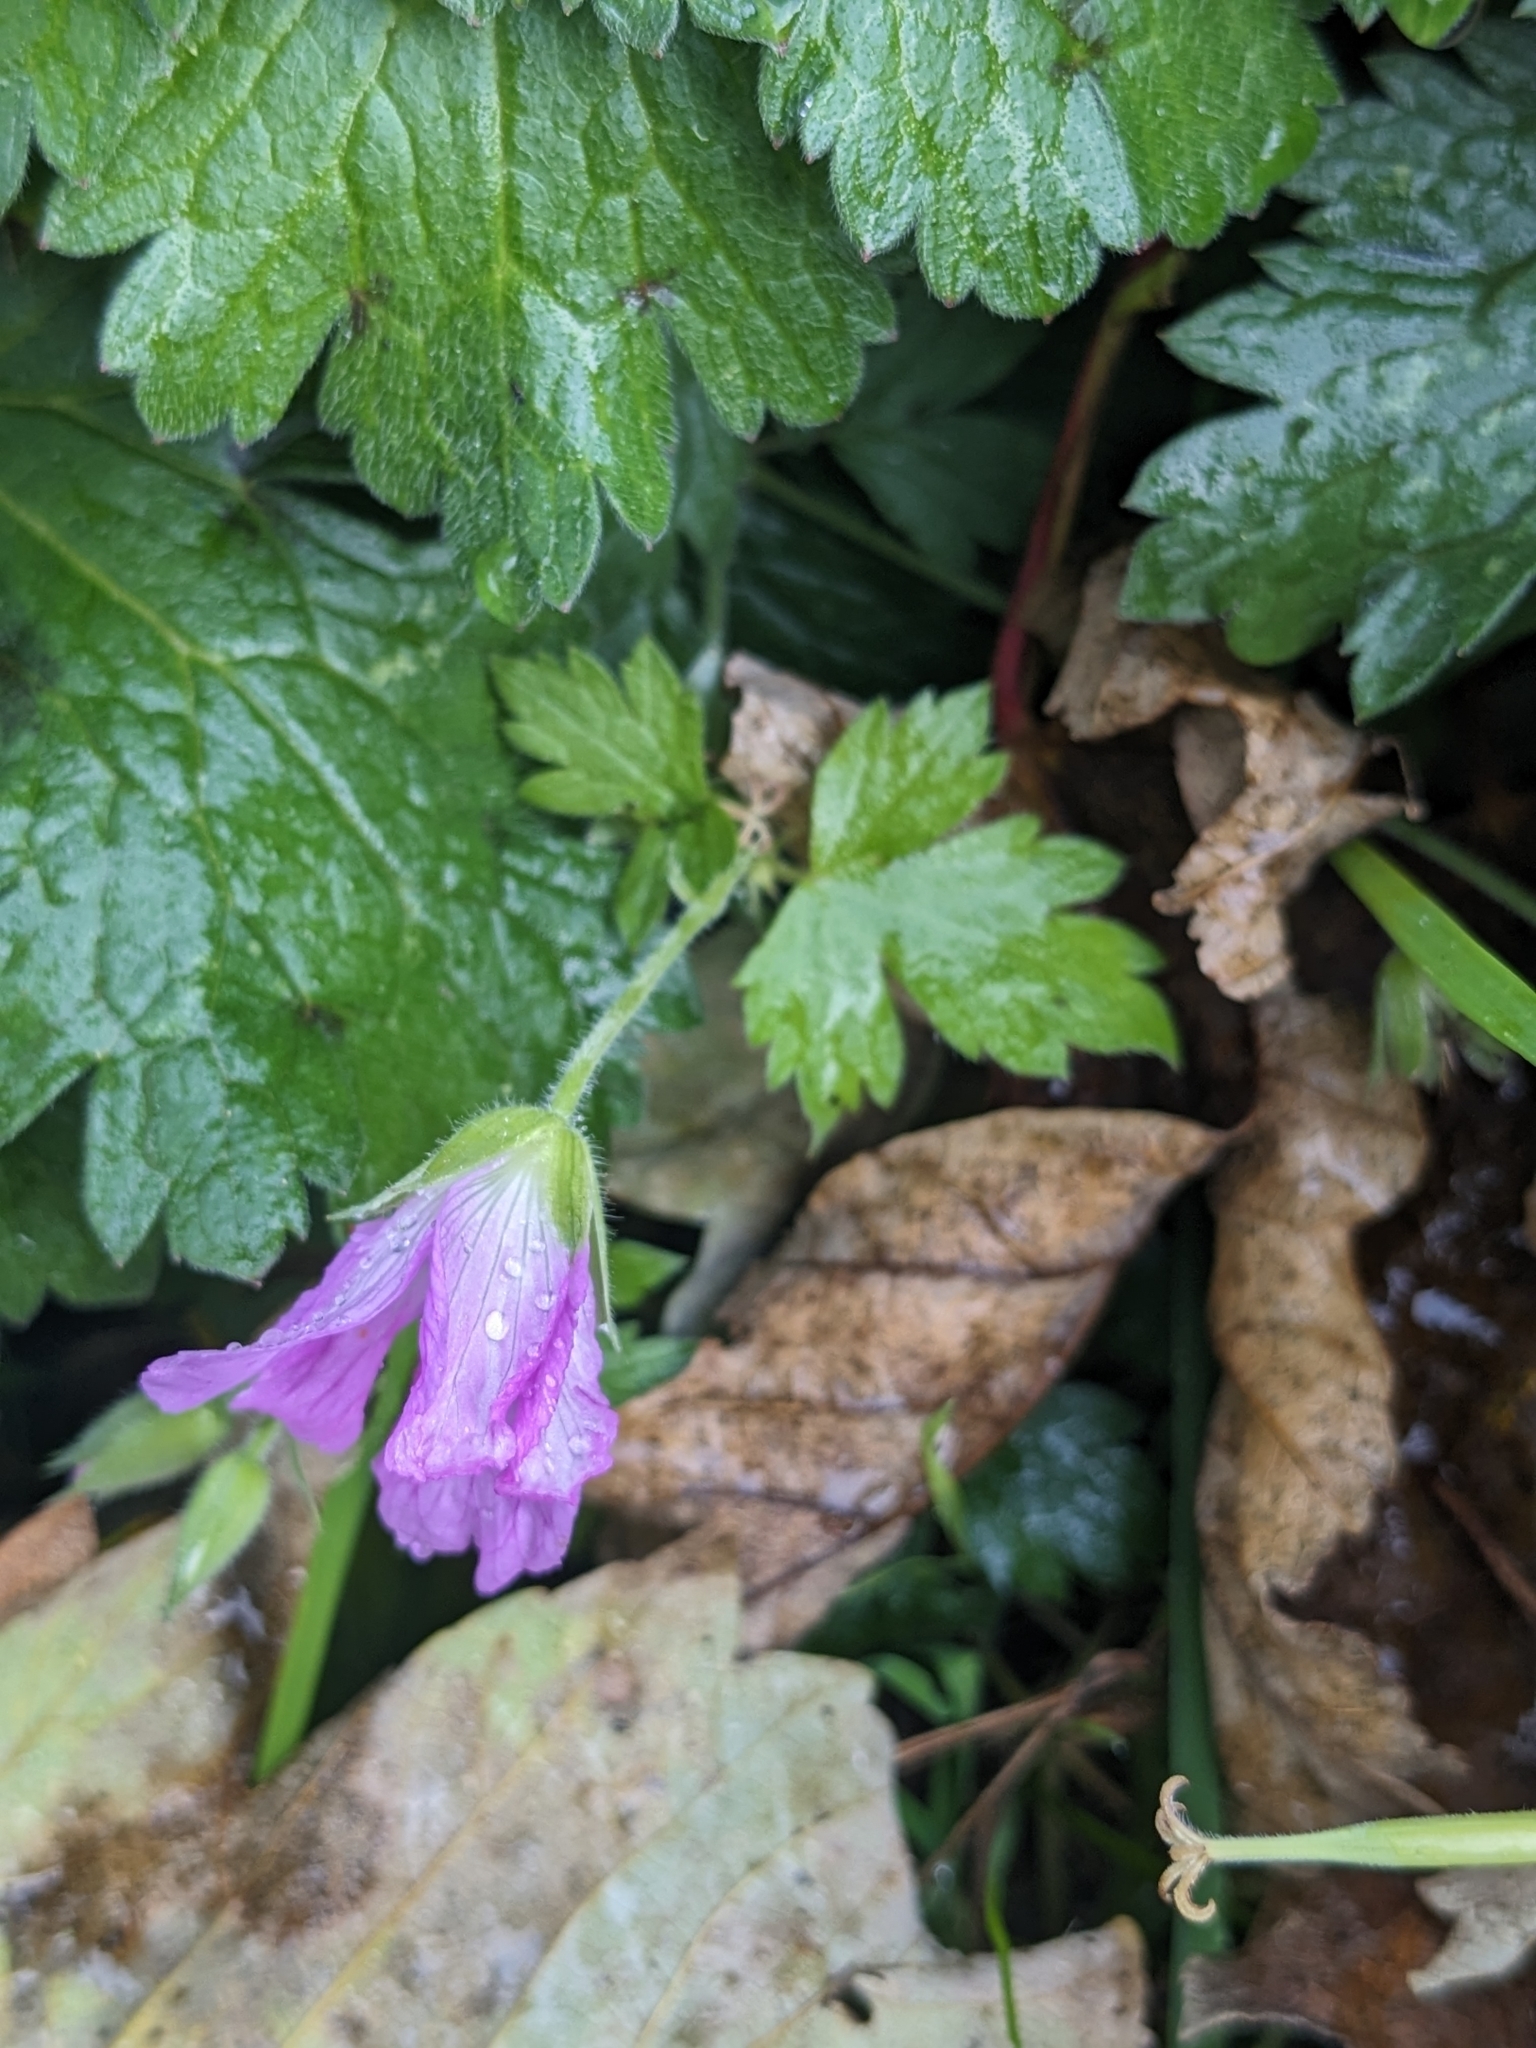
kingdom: Plantae
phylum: Tracheophyta
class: Magnoliopsida
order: Geraniales
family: Geraniaceae
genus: Geranium
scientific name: Geranium oxonianum
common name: Druce's crane's-bill
